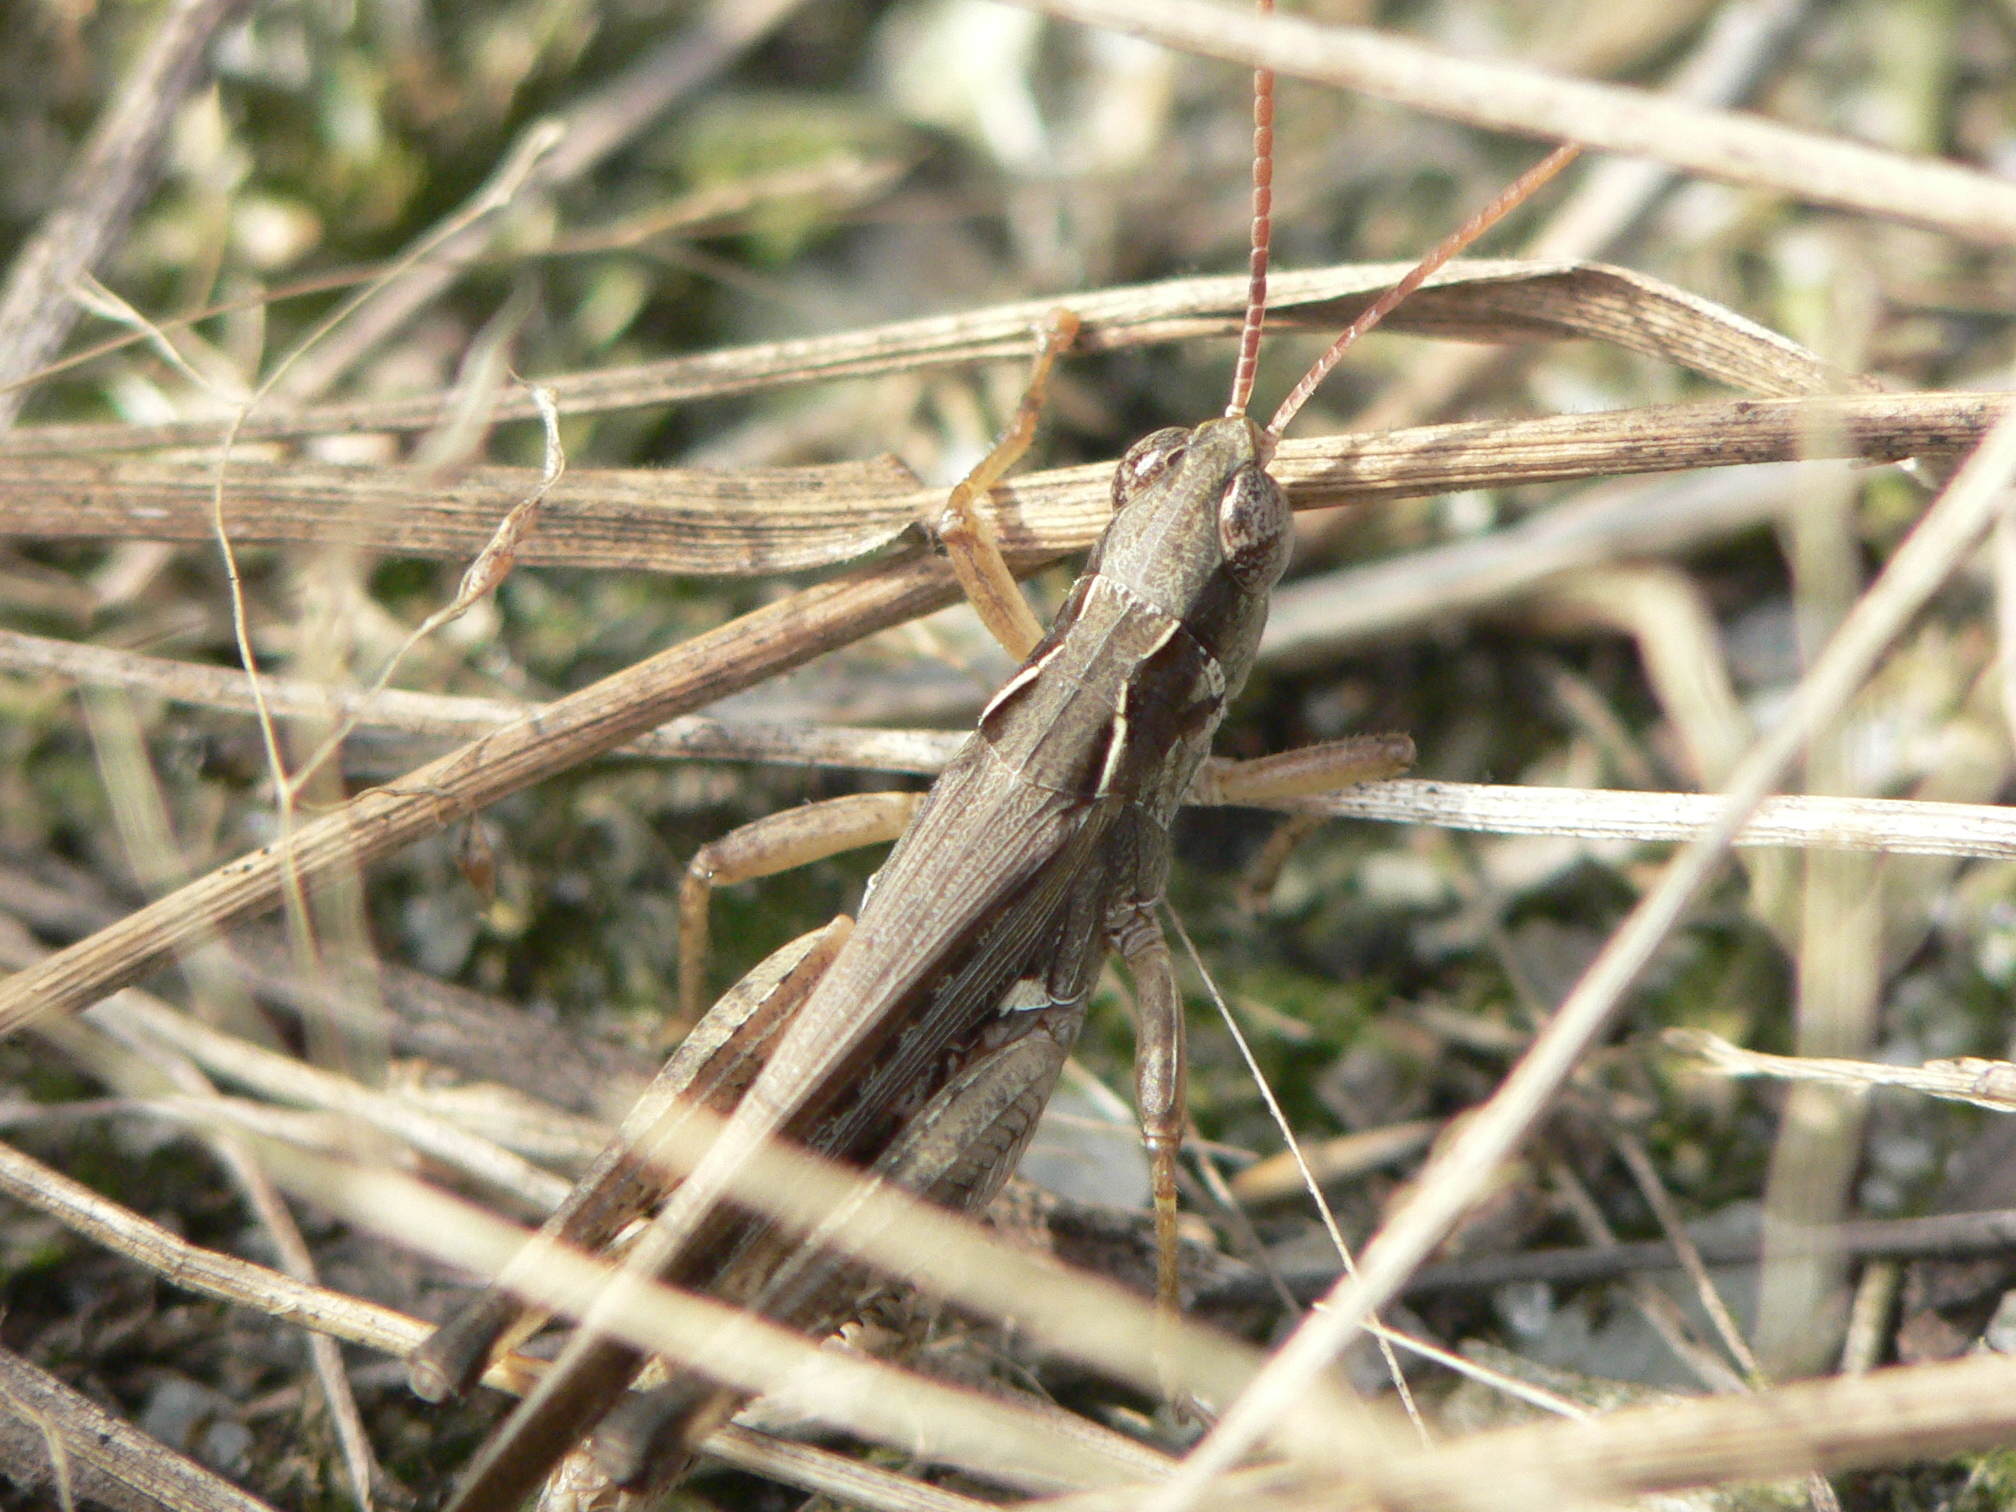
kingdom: Animalia
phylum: Arthropoda
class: Insecta
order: Orthoptera
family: Acrididae
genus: Orphulella
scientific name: Orphulella pelidna
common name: Spotted-wing grasshopper
